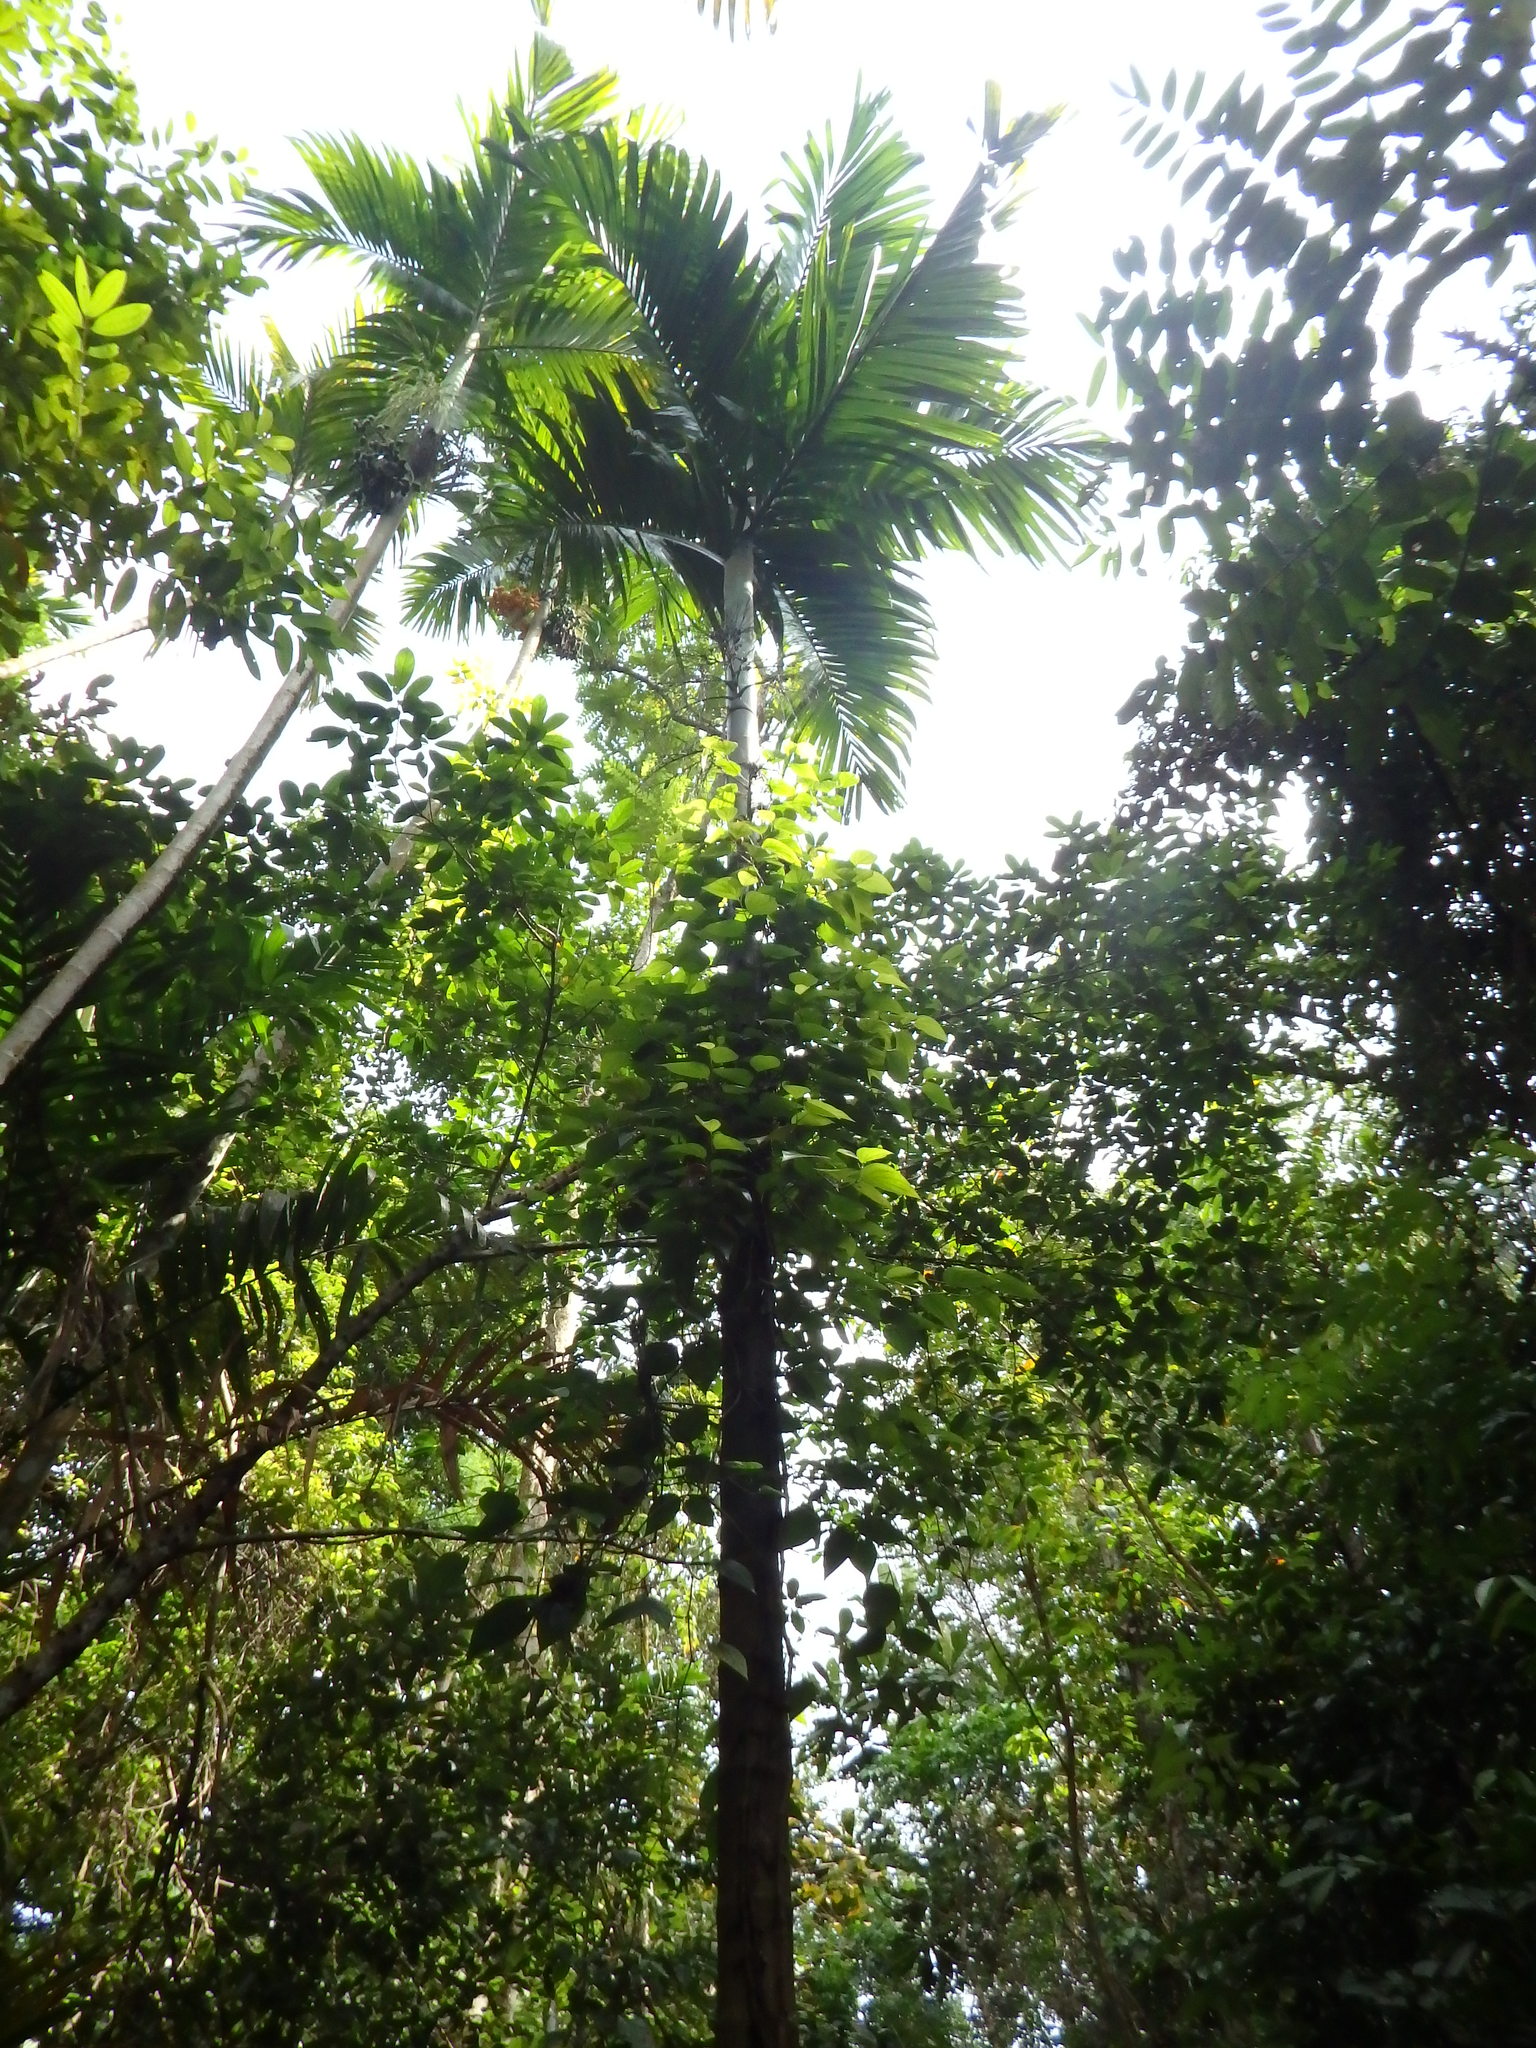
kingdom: Plantae
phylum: Tracheophyta
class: Liliopsida
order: Arecales
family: Arecaceae
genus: Areca
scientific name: Areca catechu
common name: Indian-nut
